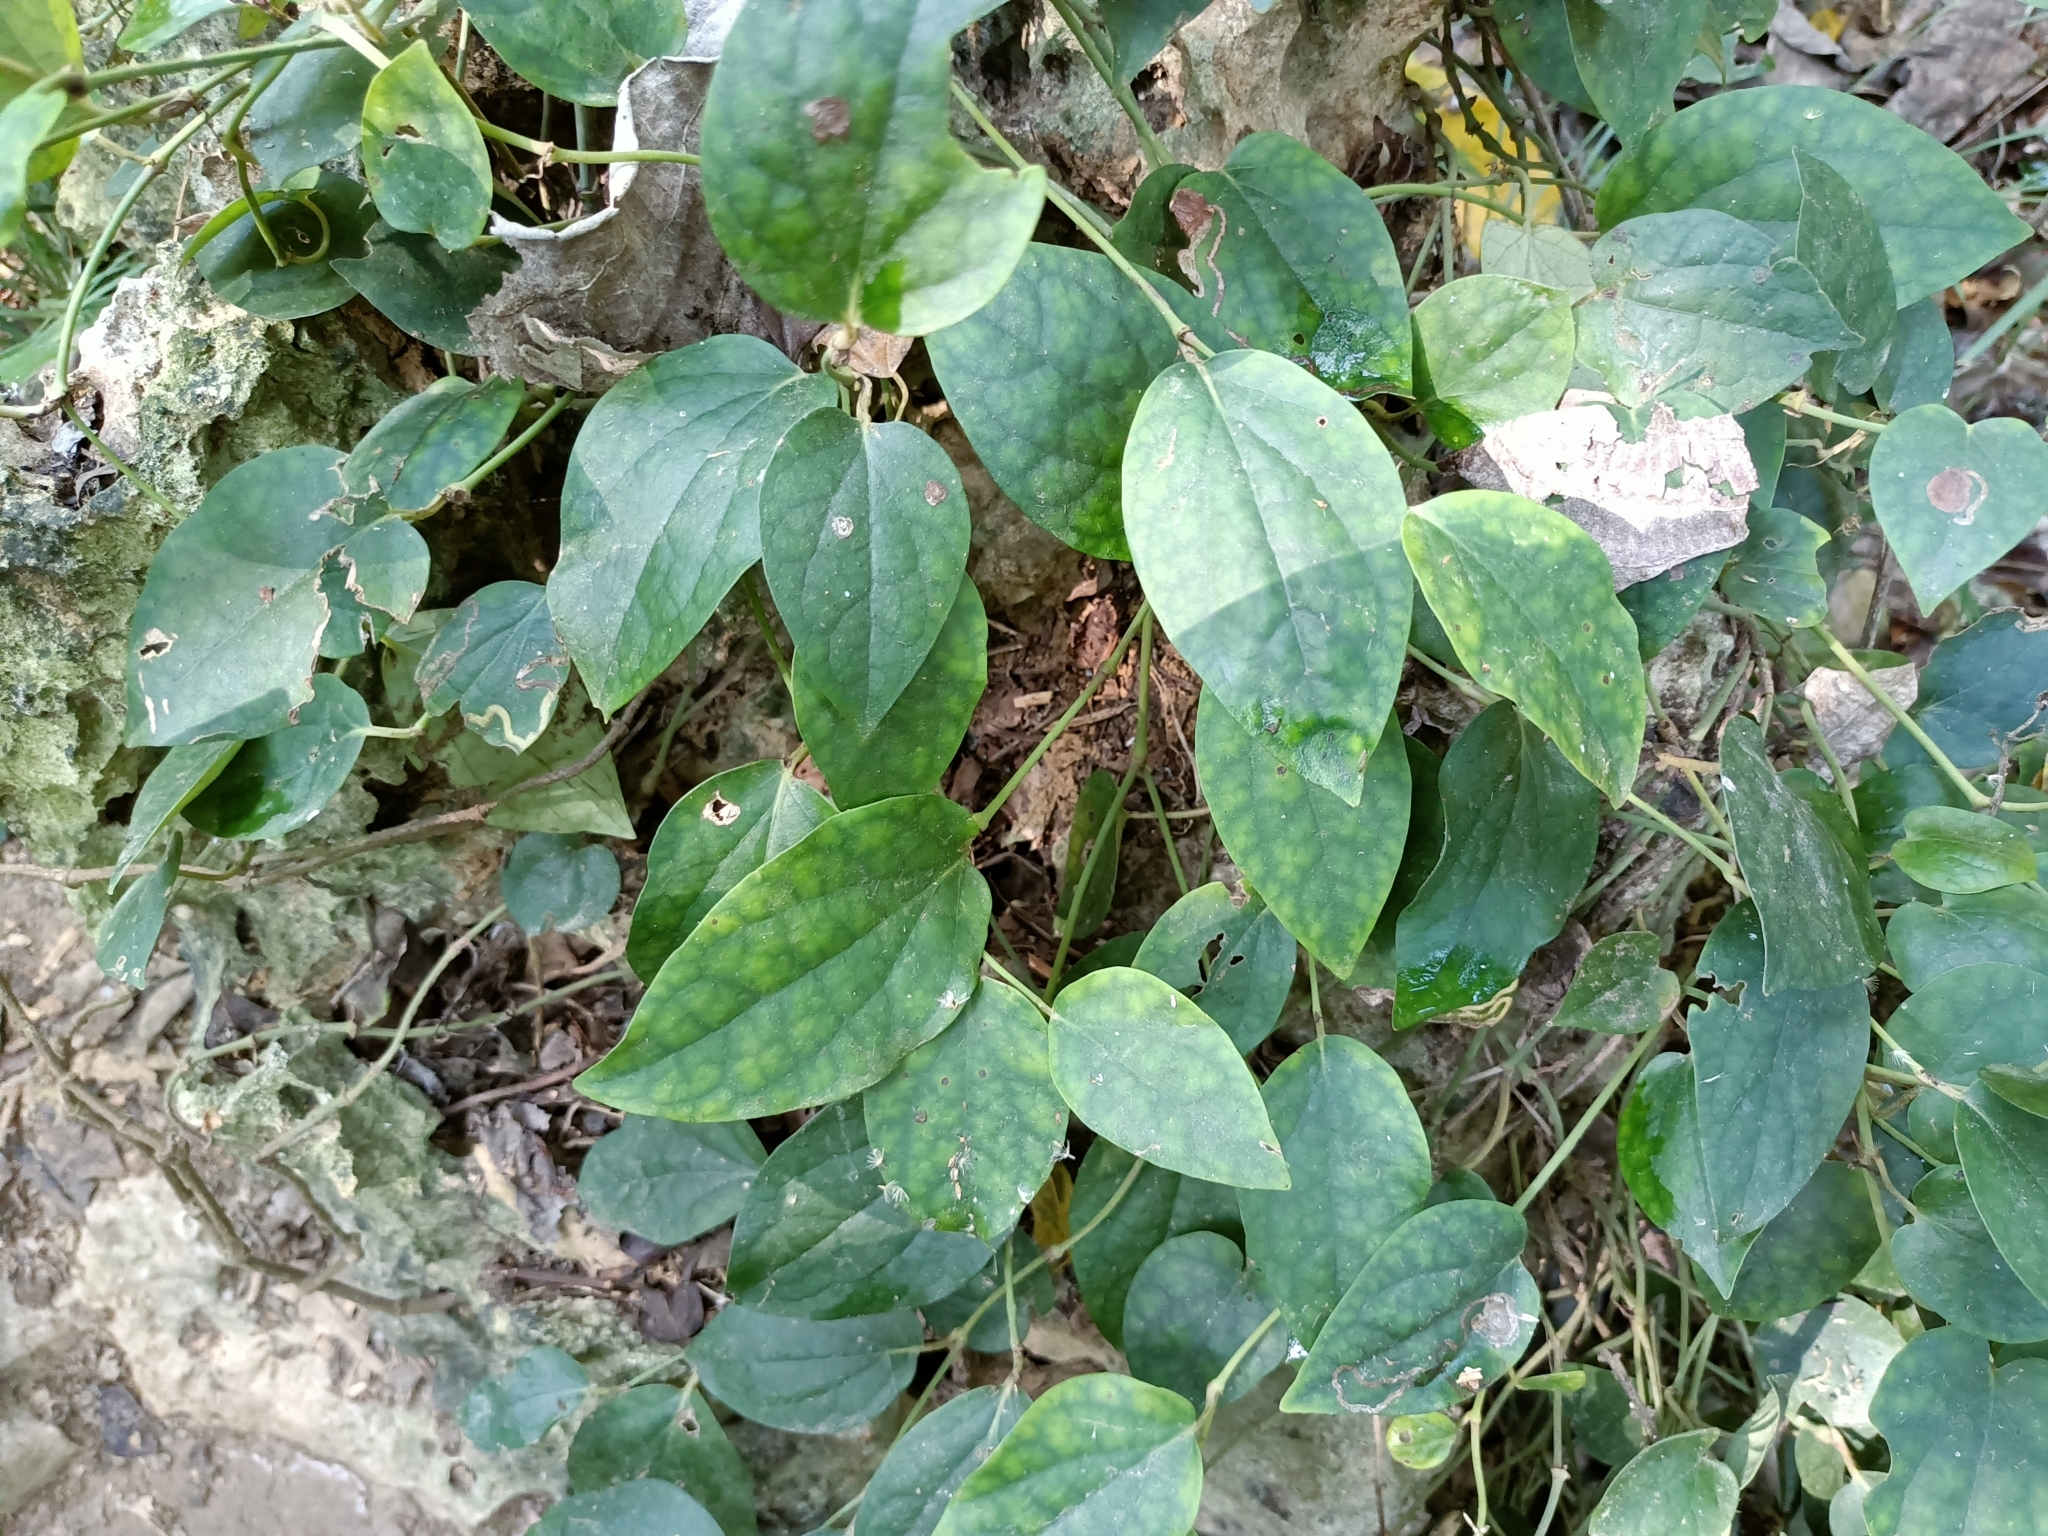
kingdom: Plantae
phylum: Tracheophyta
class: Magnoliopsida
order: Piperales
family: Piperaceae
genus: Piper
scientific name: Piper kadsura
